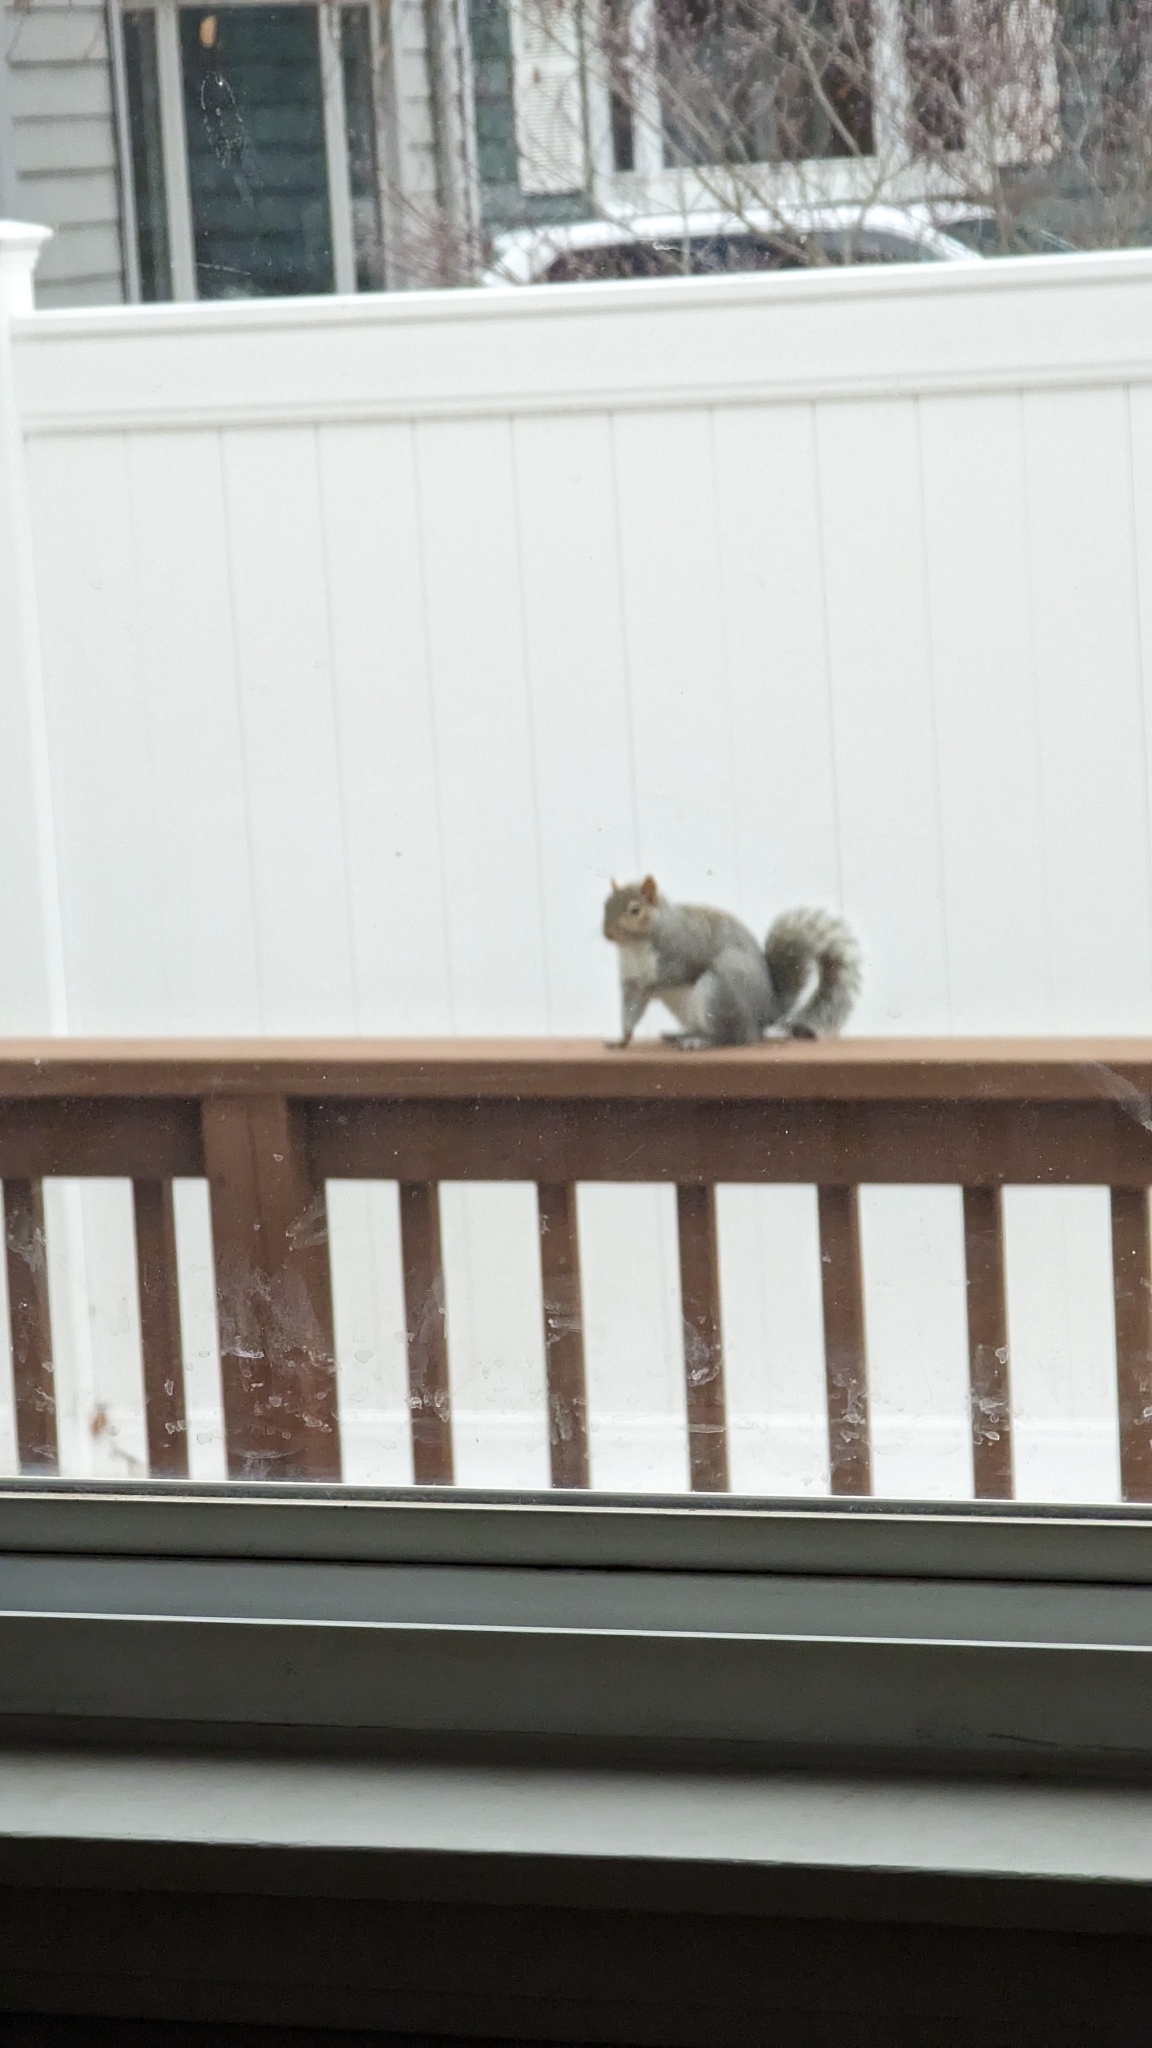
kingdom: Animalia
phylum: Chordata
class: Mammalia
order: Rodentia
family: Sciuridae
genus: Sciurus
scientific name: Sciurus carolinensis
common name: Eastern gray squirrel
